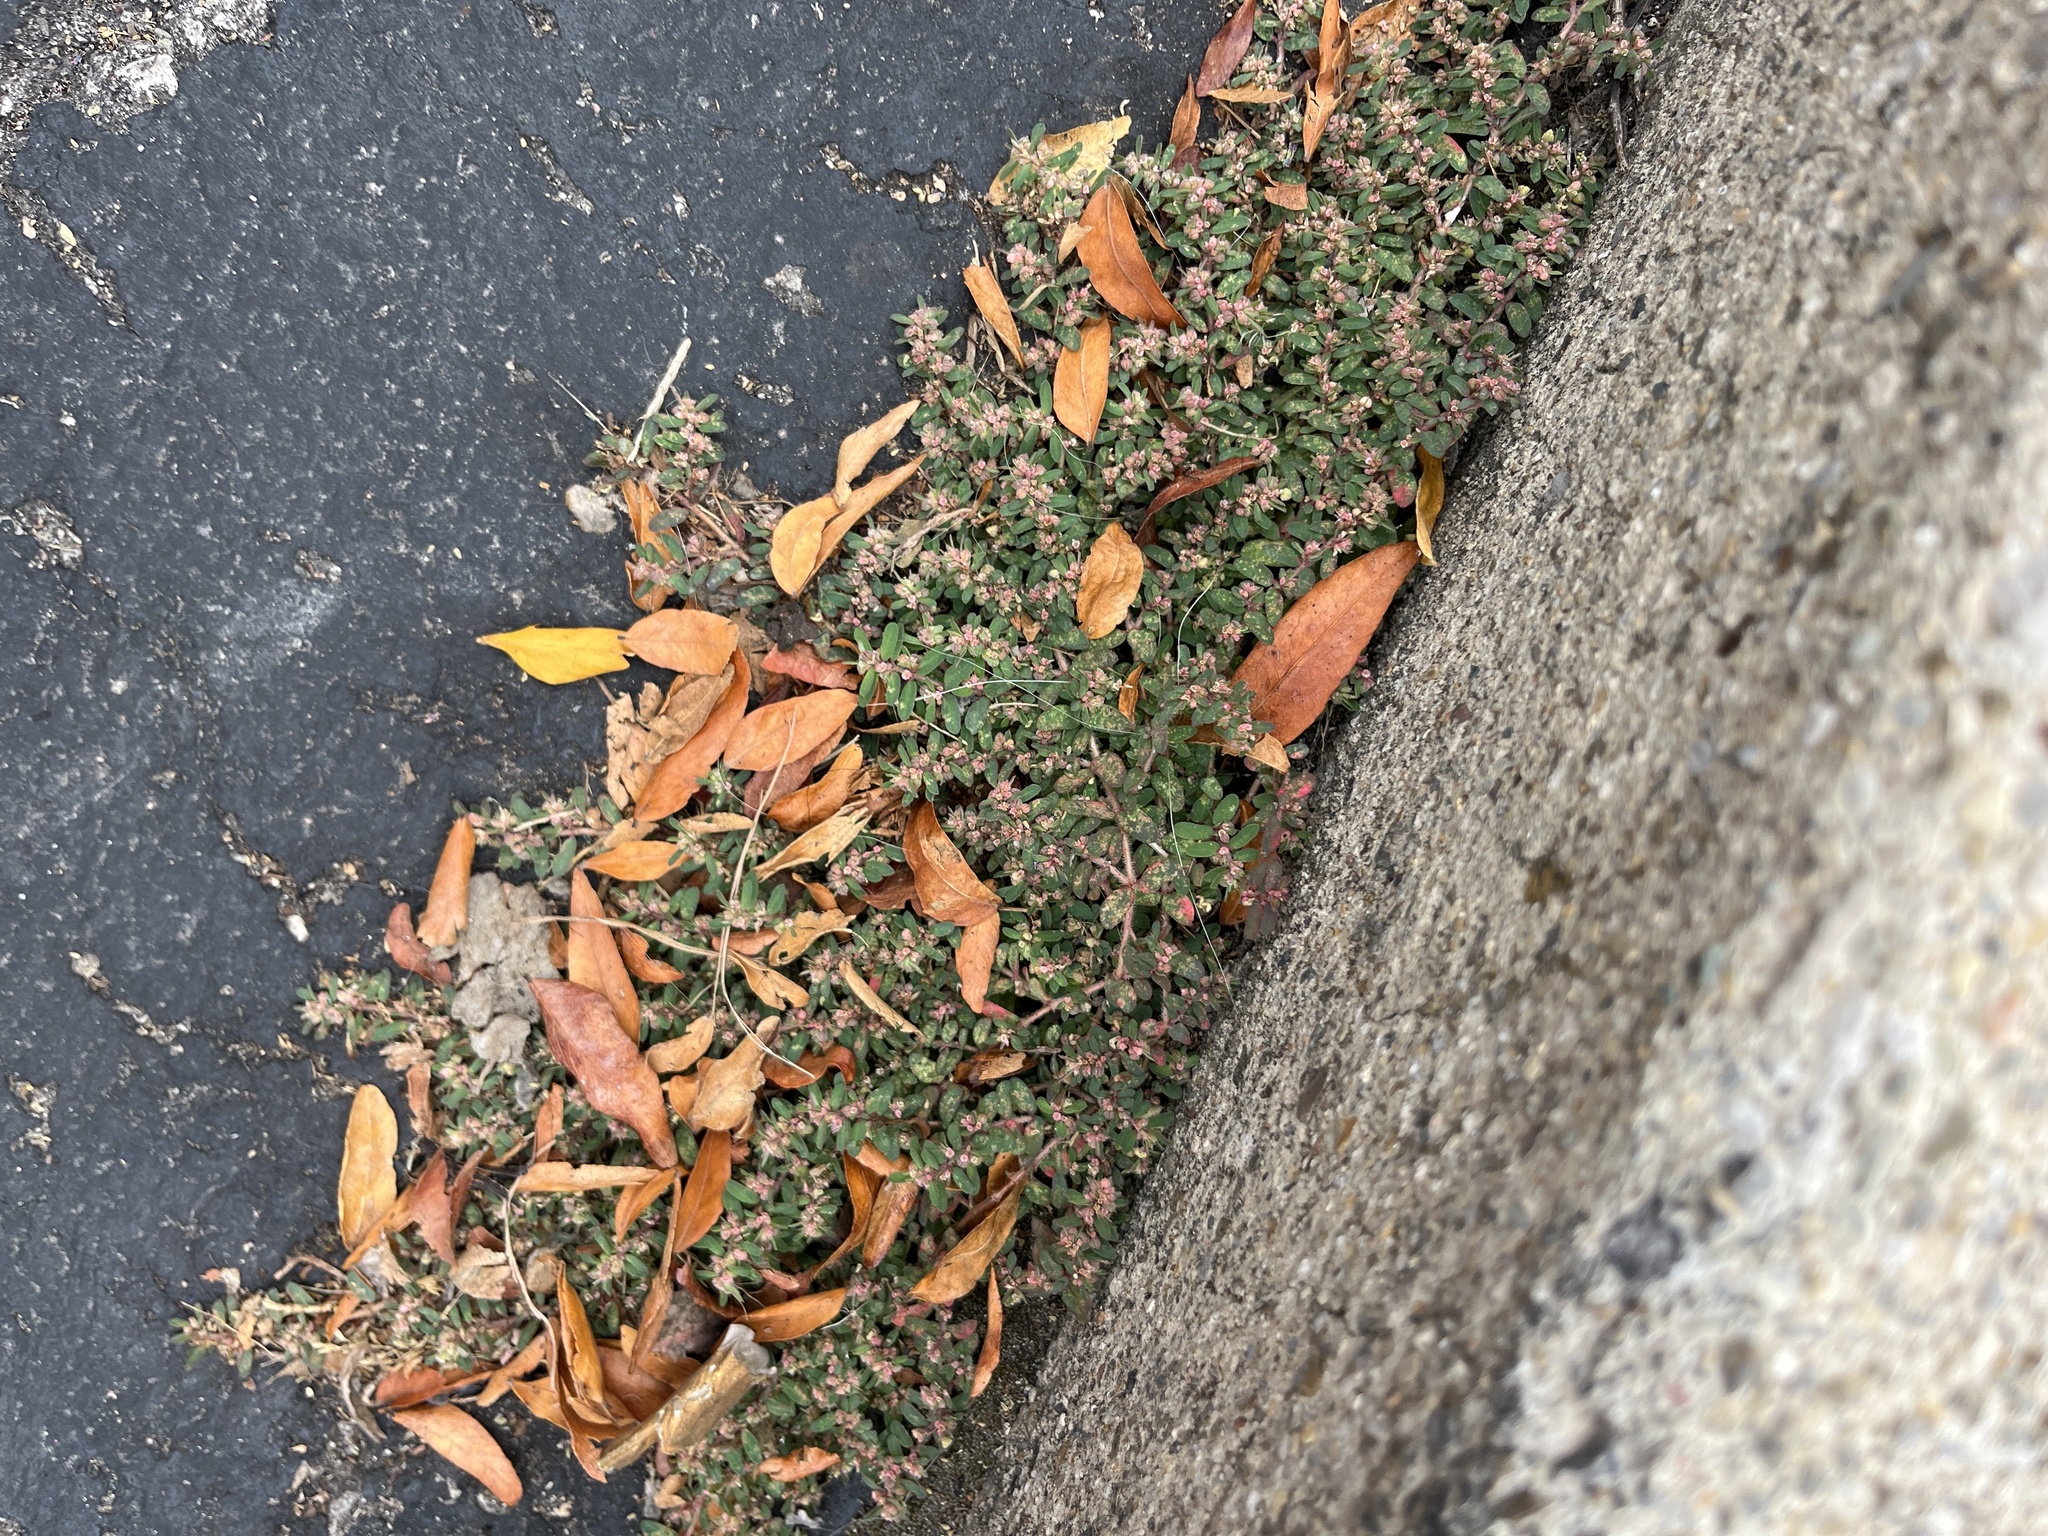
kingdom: Plantae
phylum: Tracheophyta
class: Magnoliopsida
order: Malpighiales
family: Euphorbiaceae
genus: Euphorbia
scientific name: Euphorbia maculata
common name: Spotted spurge
